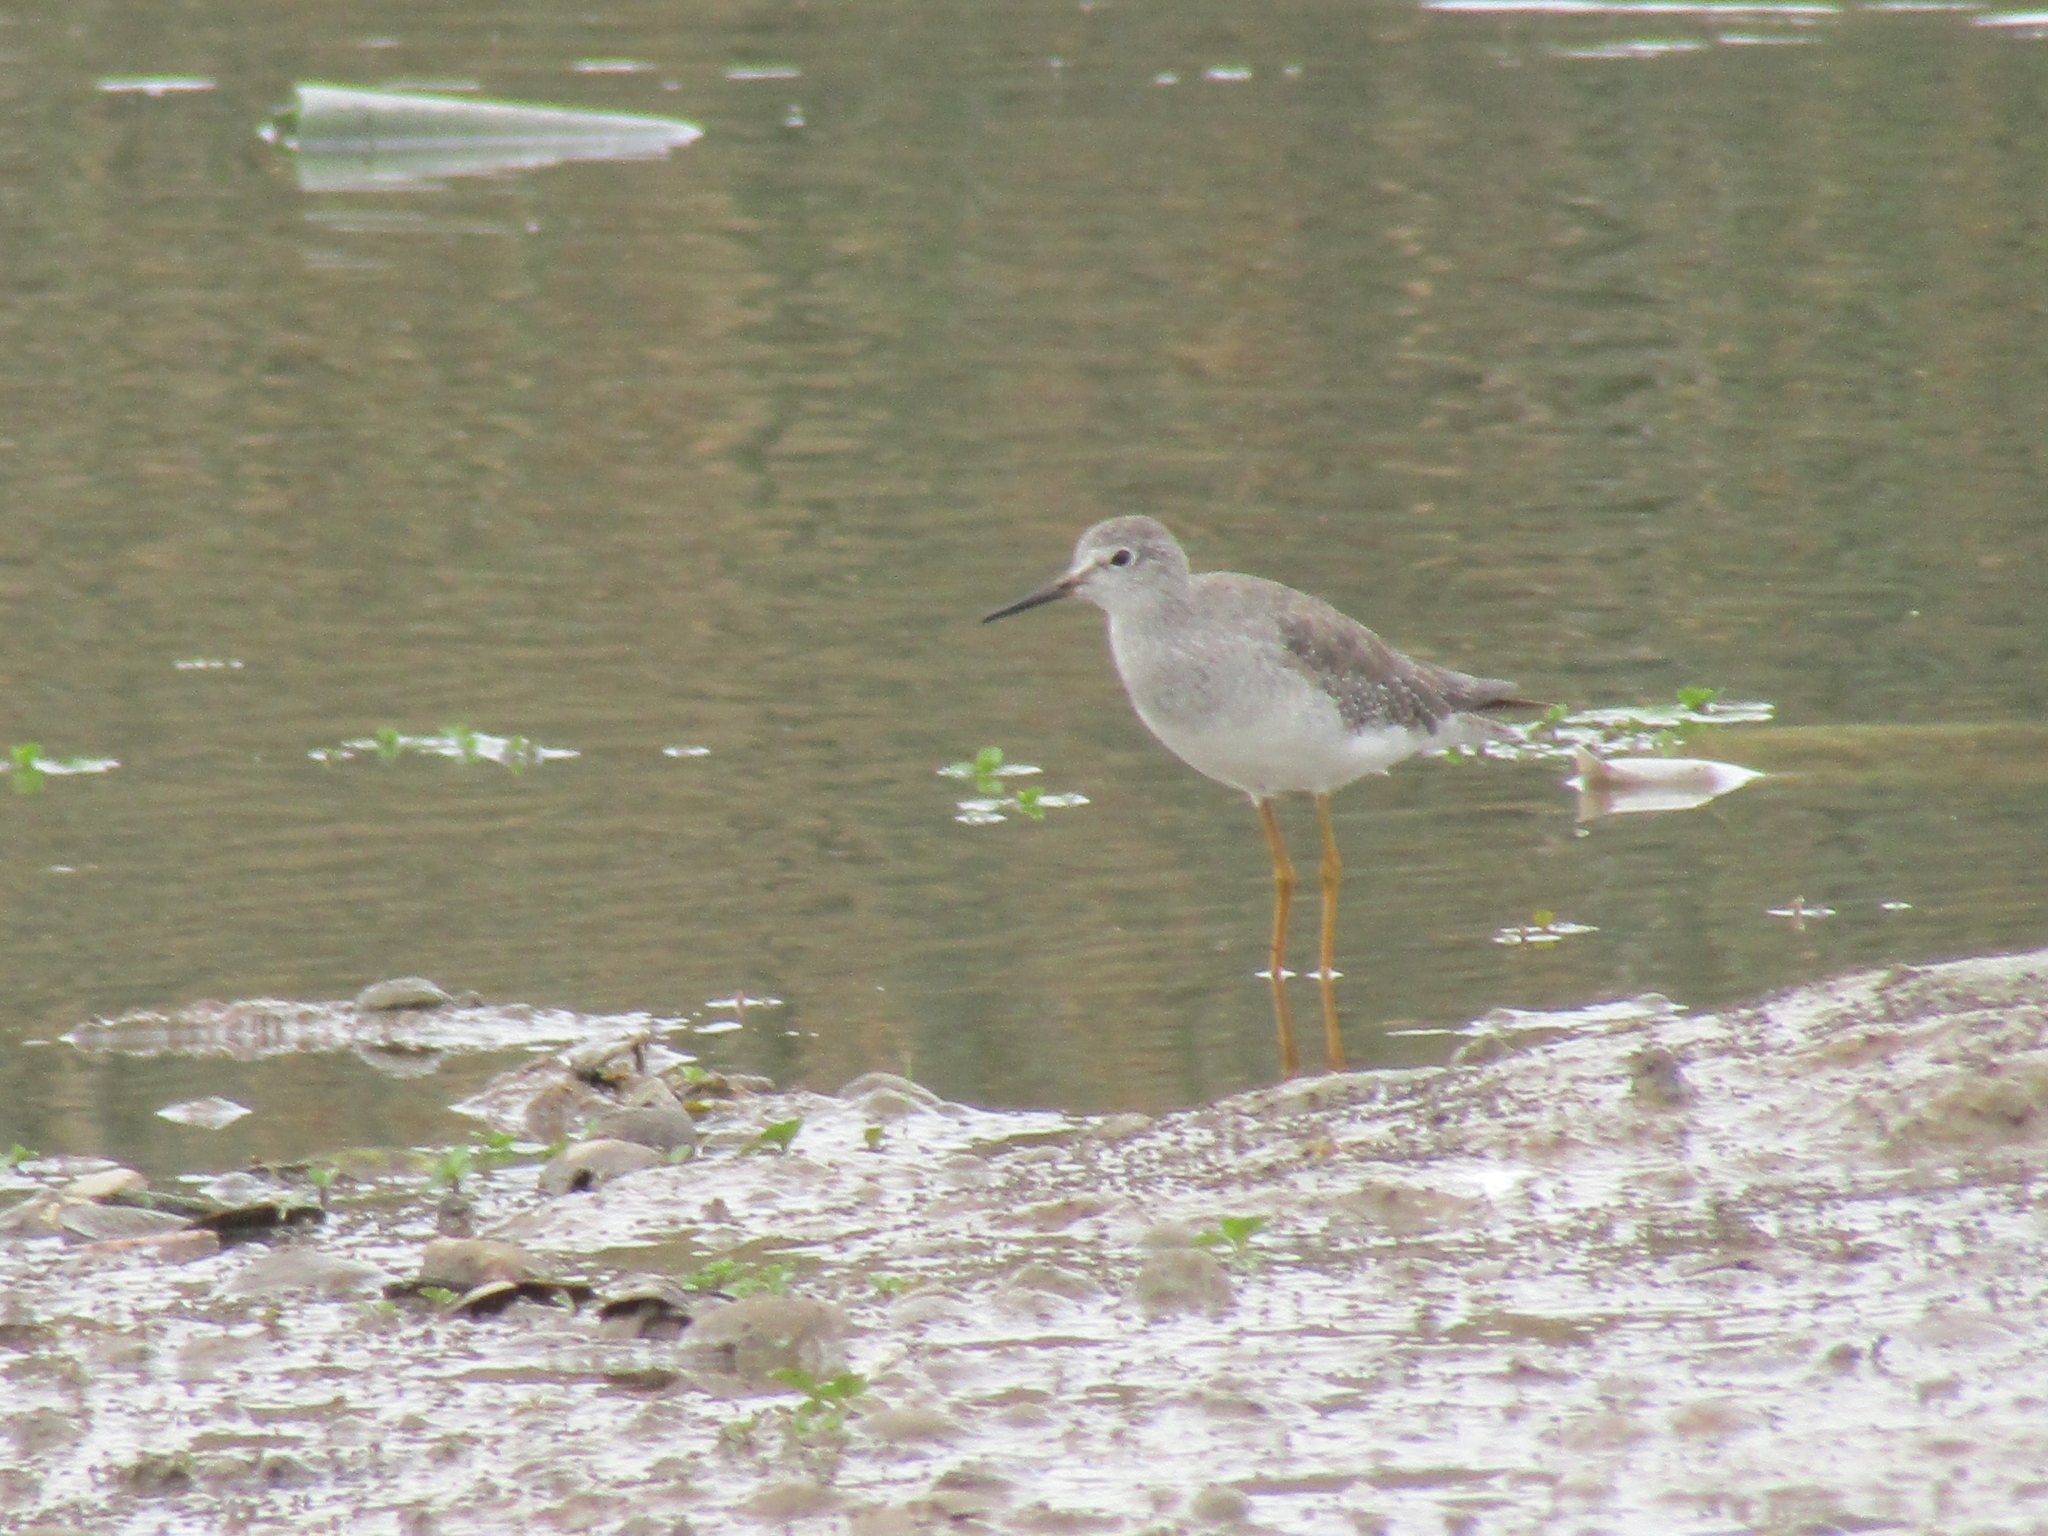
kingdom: Animalia
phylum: Chordata
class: Aves
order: Charadriiformes
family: Scolopacidae
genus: Tringa
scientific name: Tringa flavipes
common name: Lesser yellowlegs
